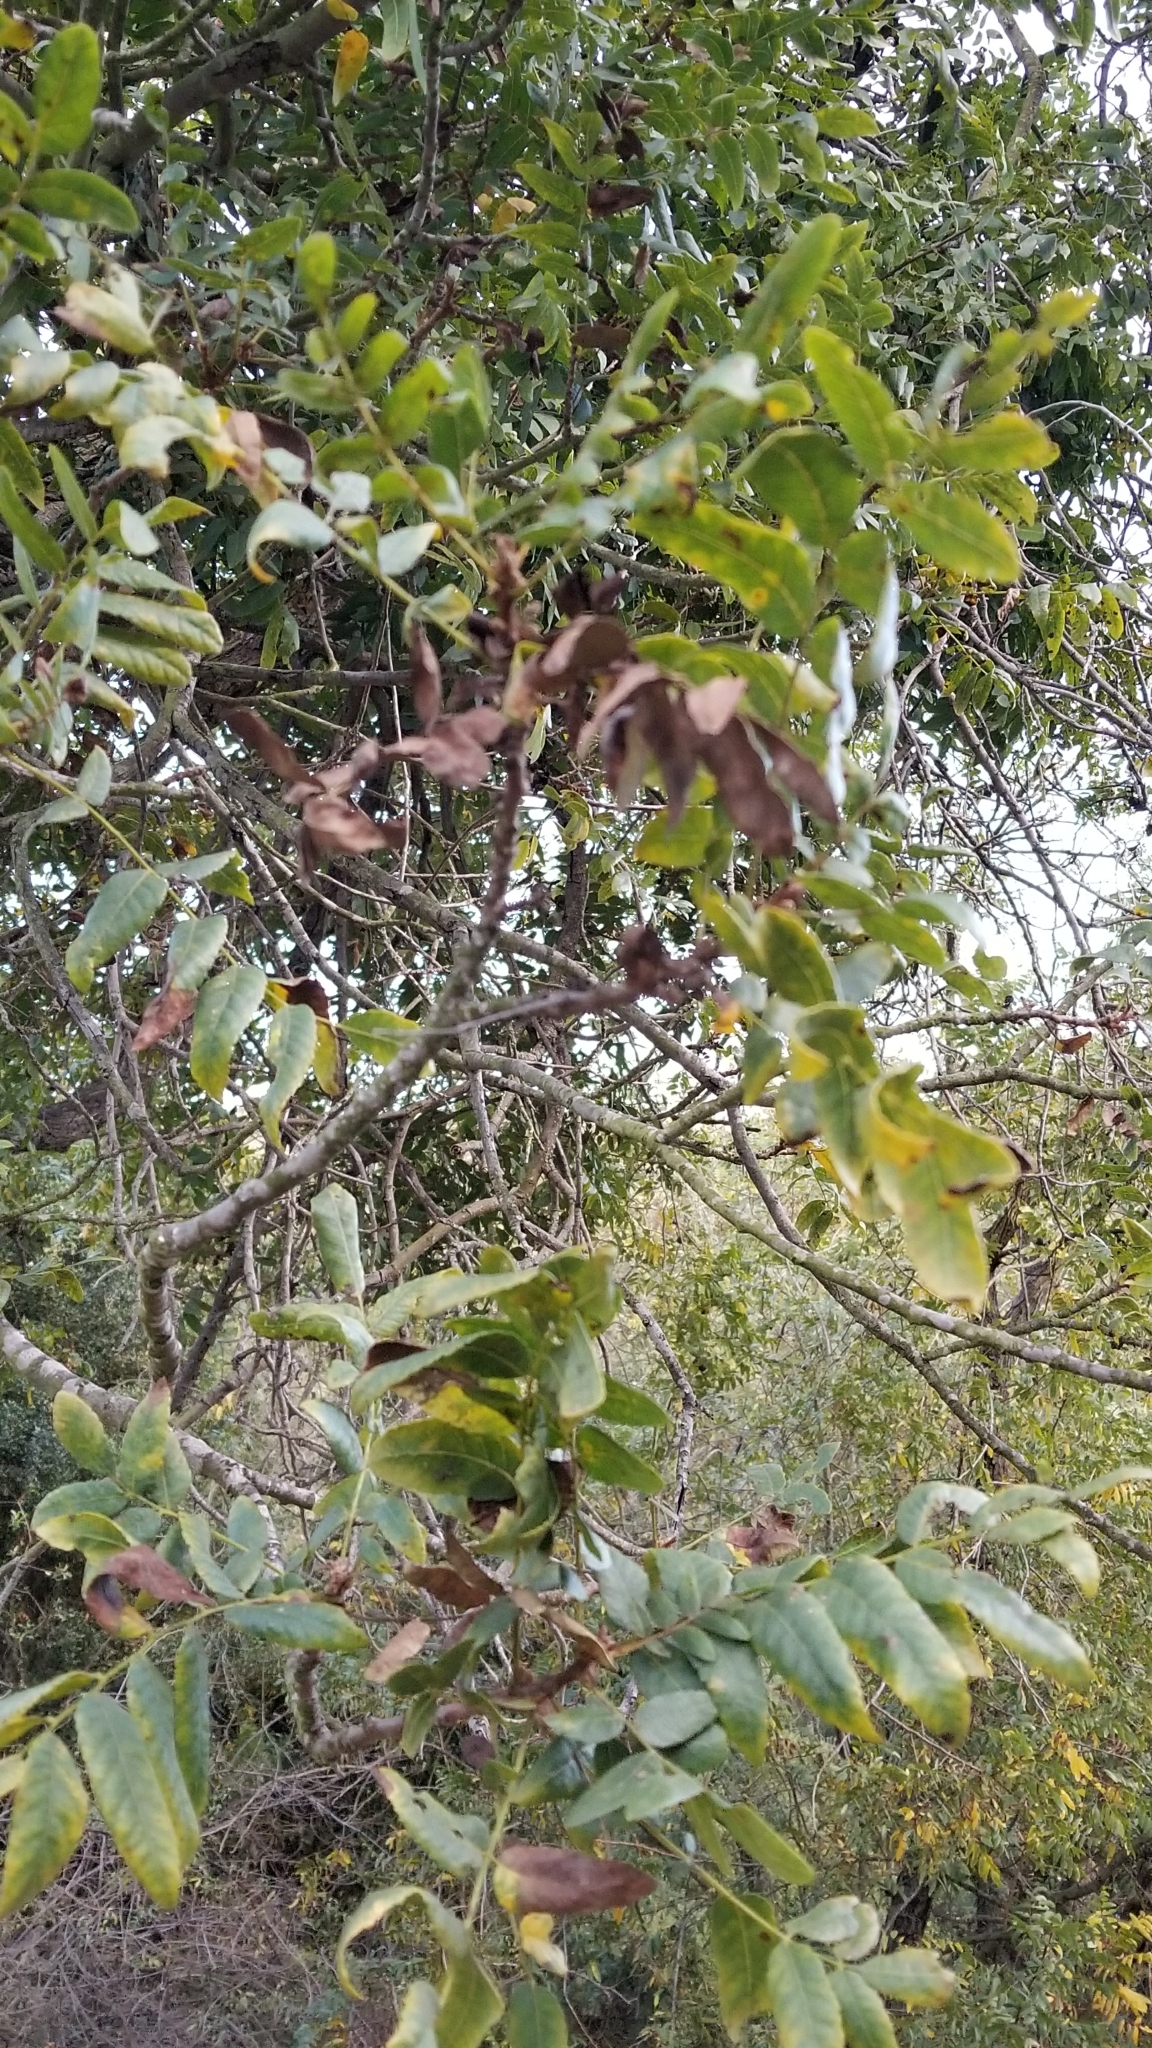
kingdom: Plantae
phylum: Tracheophyta
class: Magnoliopsida
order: Fagales
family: Juglandaceae
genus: Juglans
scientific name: Juglans californica
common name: Southern california black walnut
